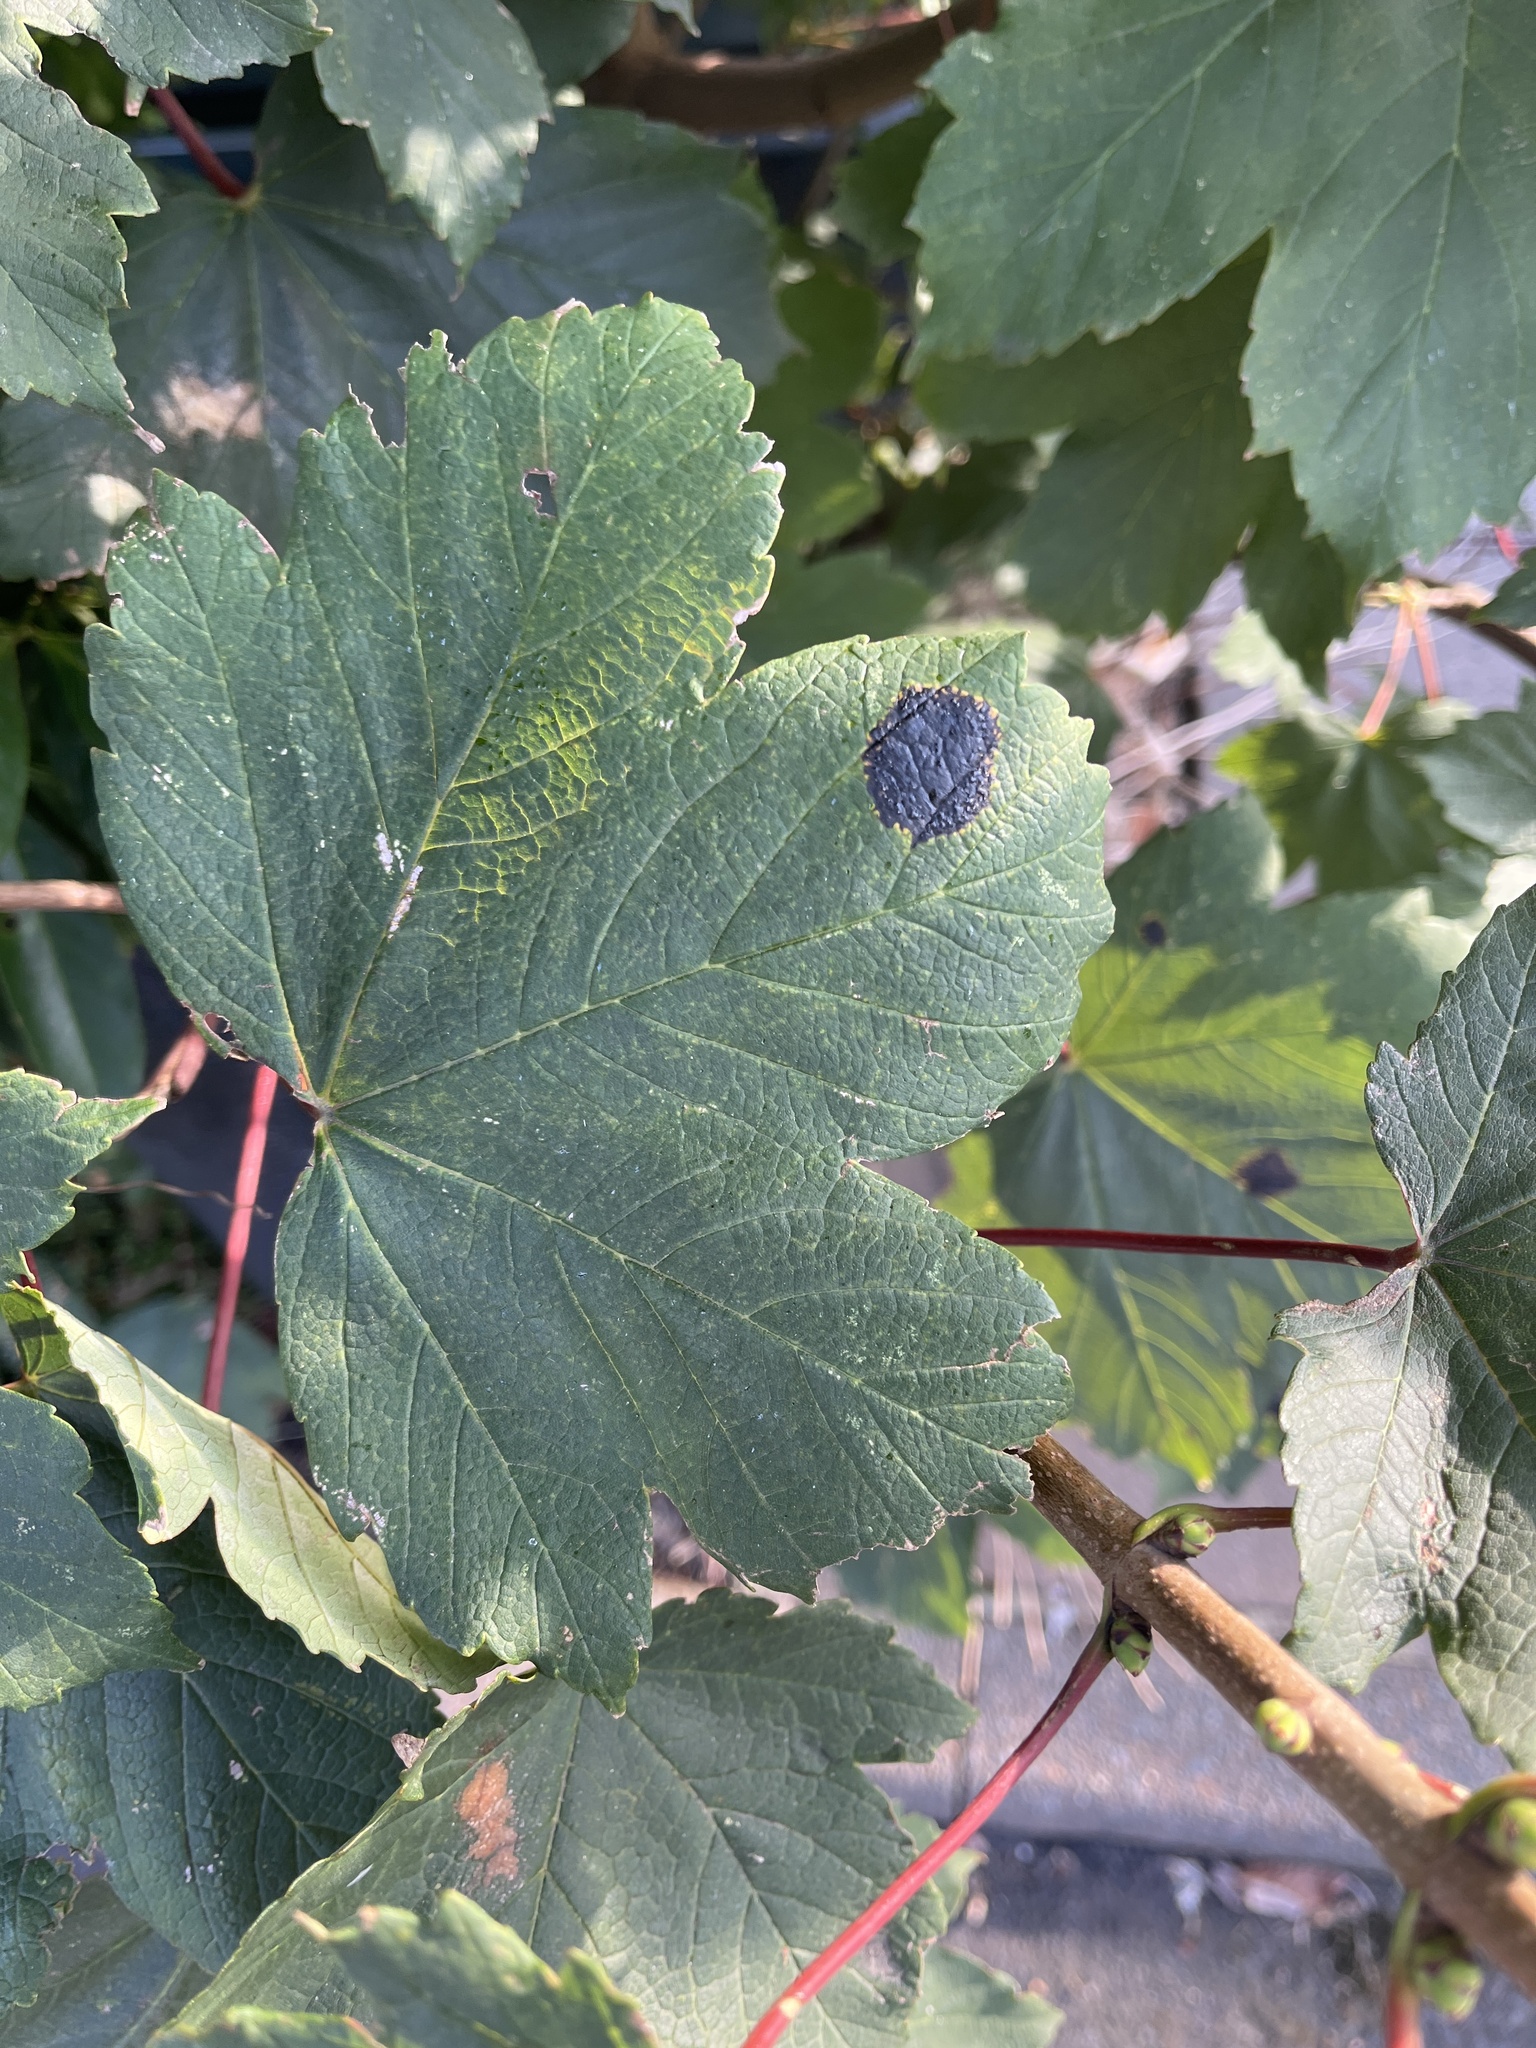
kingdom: Fungi
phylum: Ascomycota
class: Leotiomycetes
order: Rhytismatales
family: Rhytismataceae
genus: Rhytisma
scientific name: Rhytisma acerinum
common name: European tar spot
